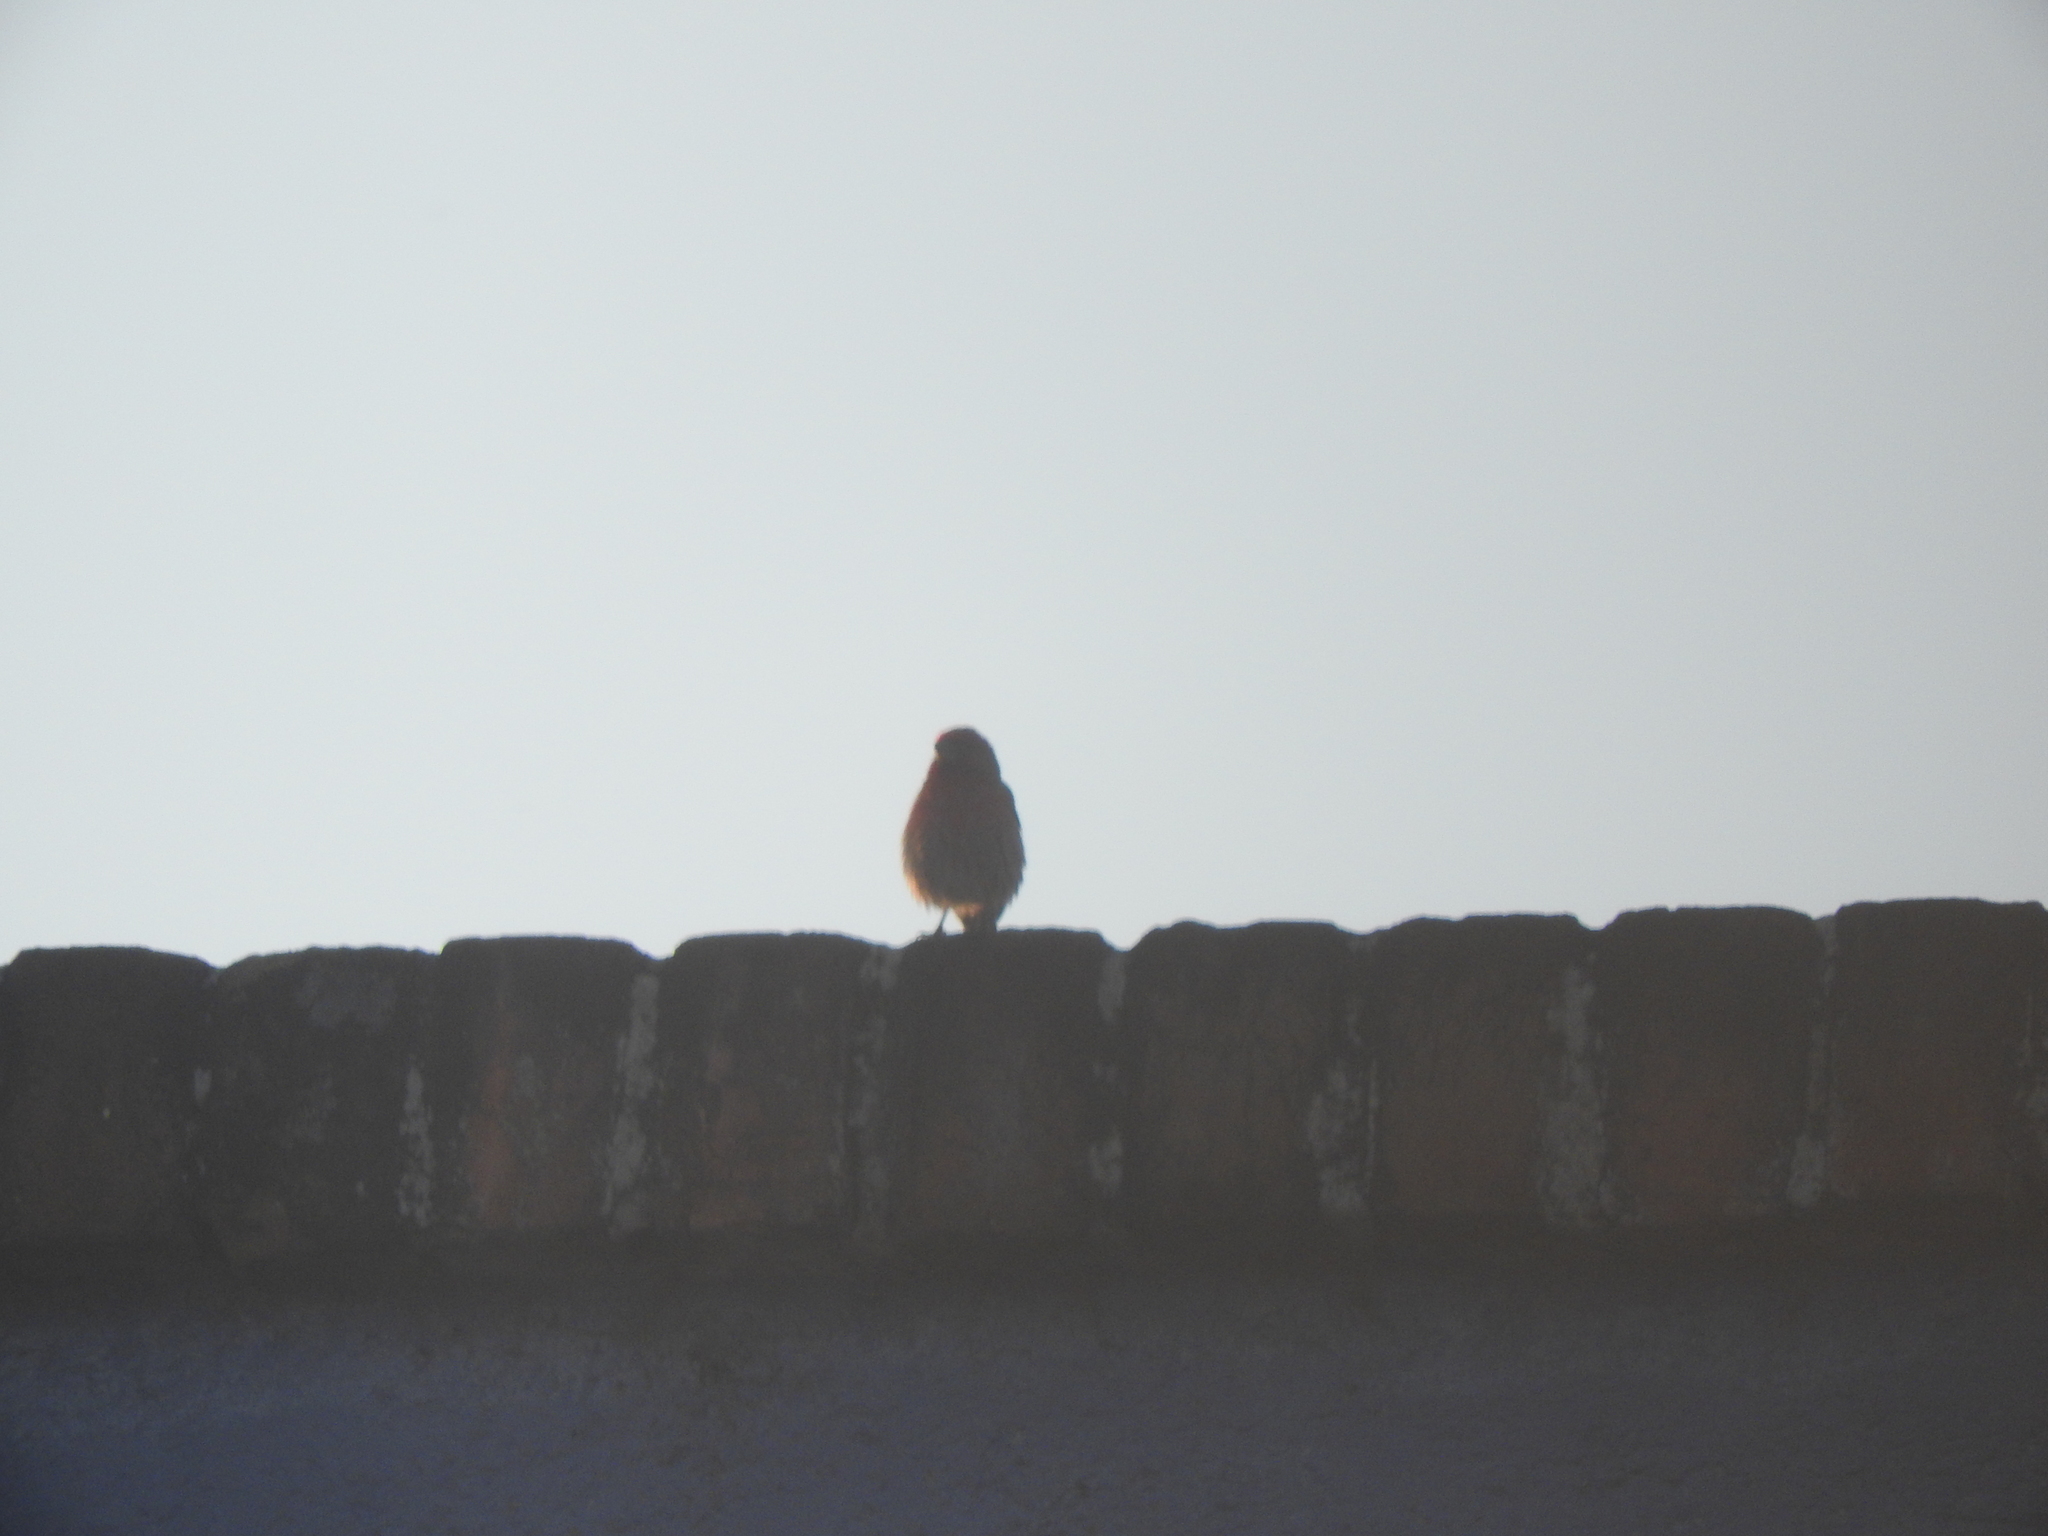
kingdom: Animalia
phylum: Chordata
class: Aves
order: Passeriformes
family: Fringillidae
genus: Haemorhous
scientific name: Haemorhous mexicanus
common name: House finch
